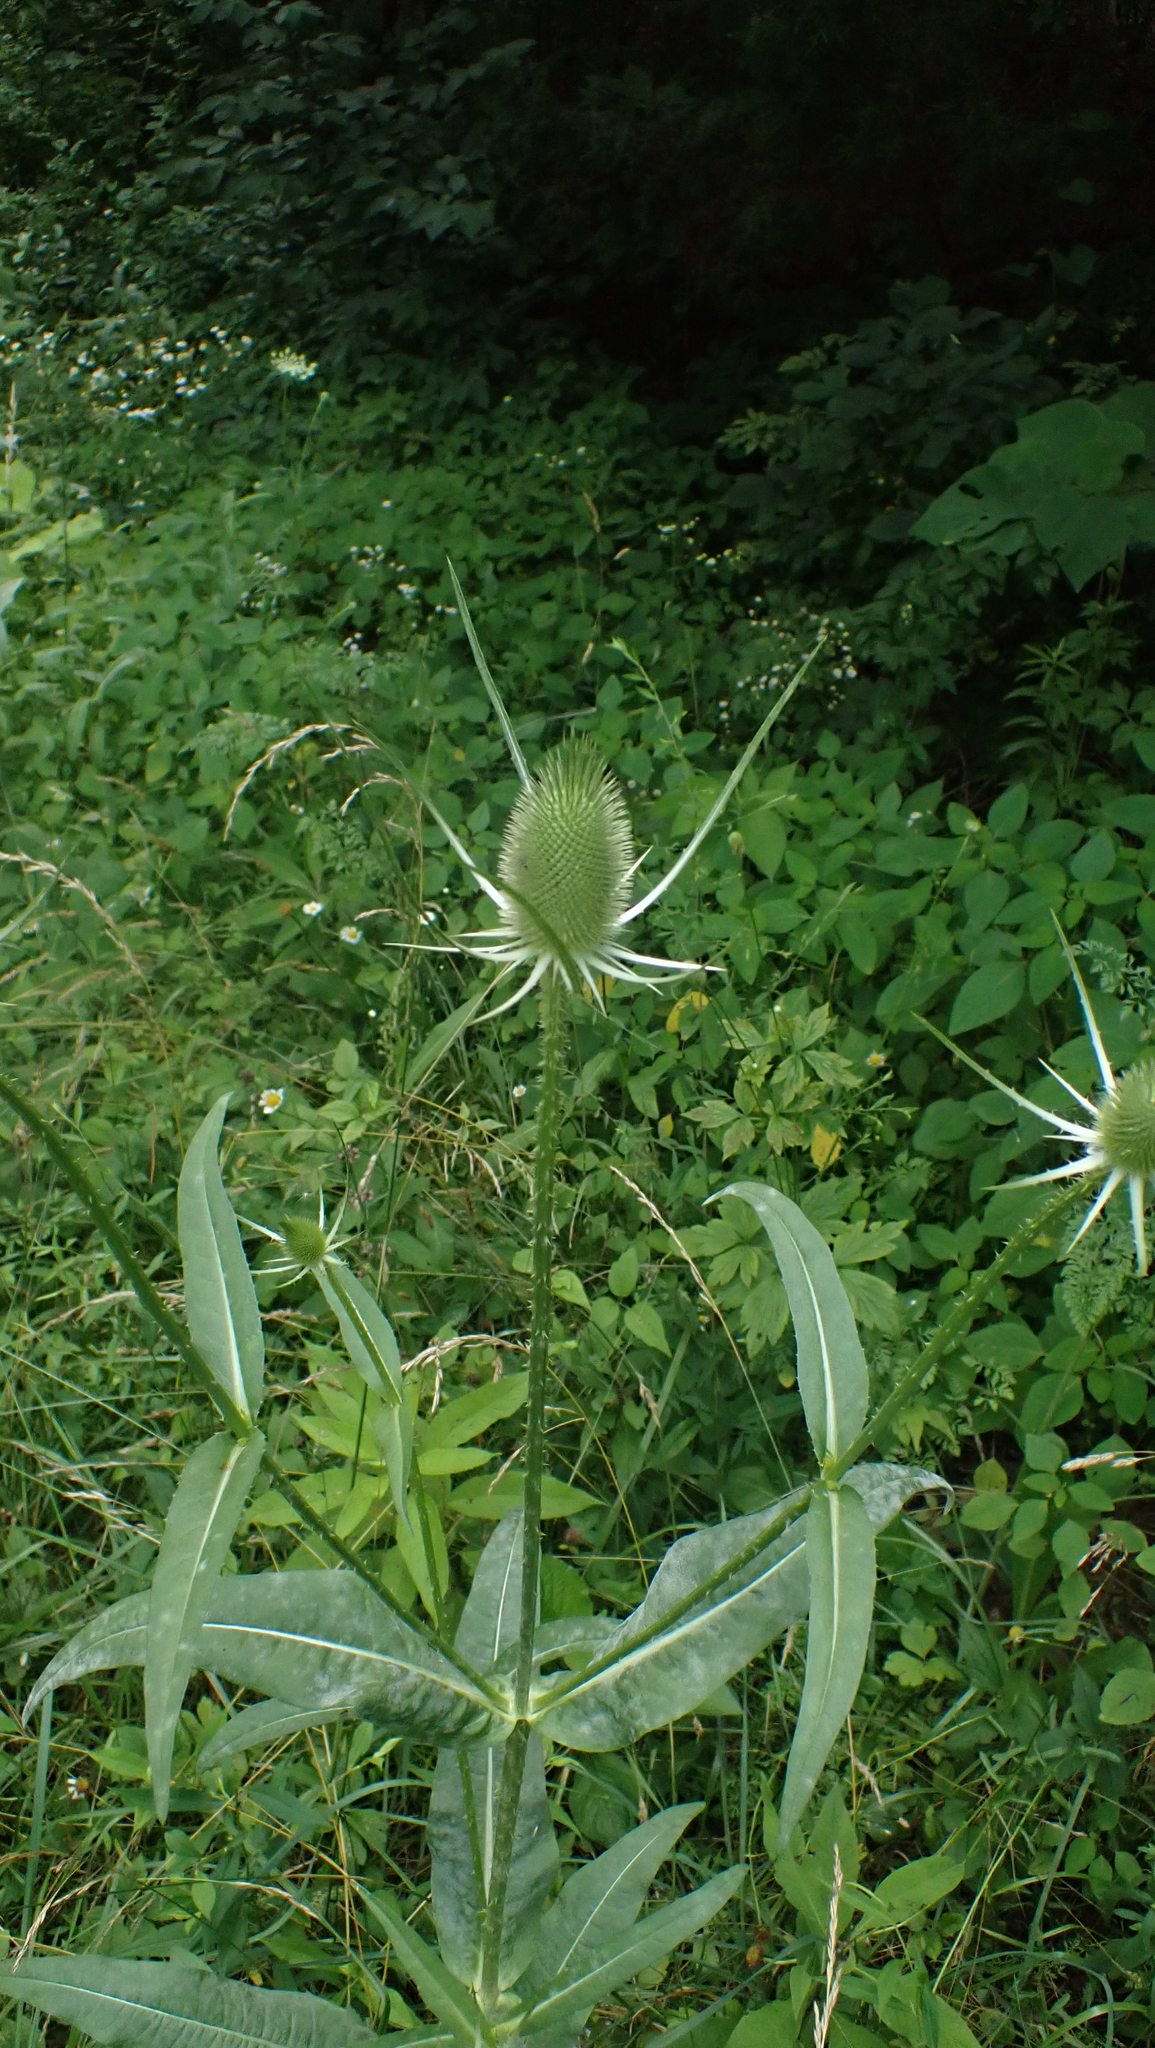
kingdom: Plantae
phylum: Tracheophyta
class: Magnoliopsida
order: Dipsacales
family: Caprifoliaceae
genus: Dipsacus
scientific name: Dipsacus fullonum
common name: Teasel
